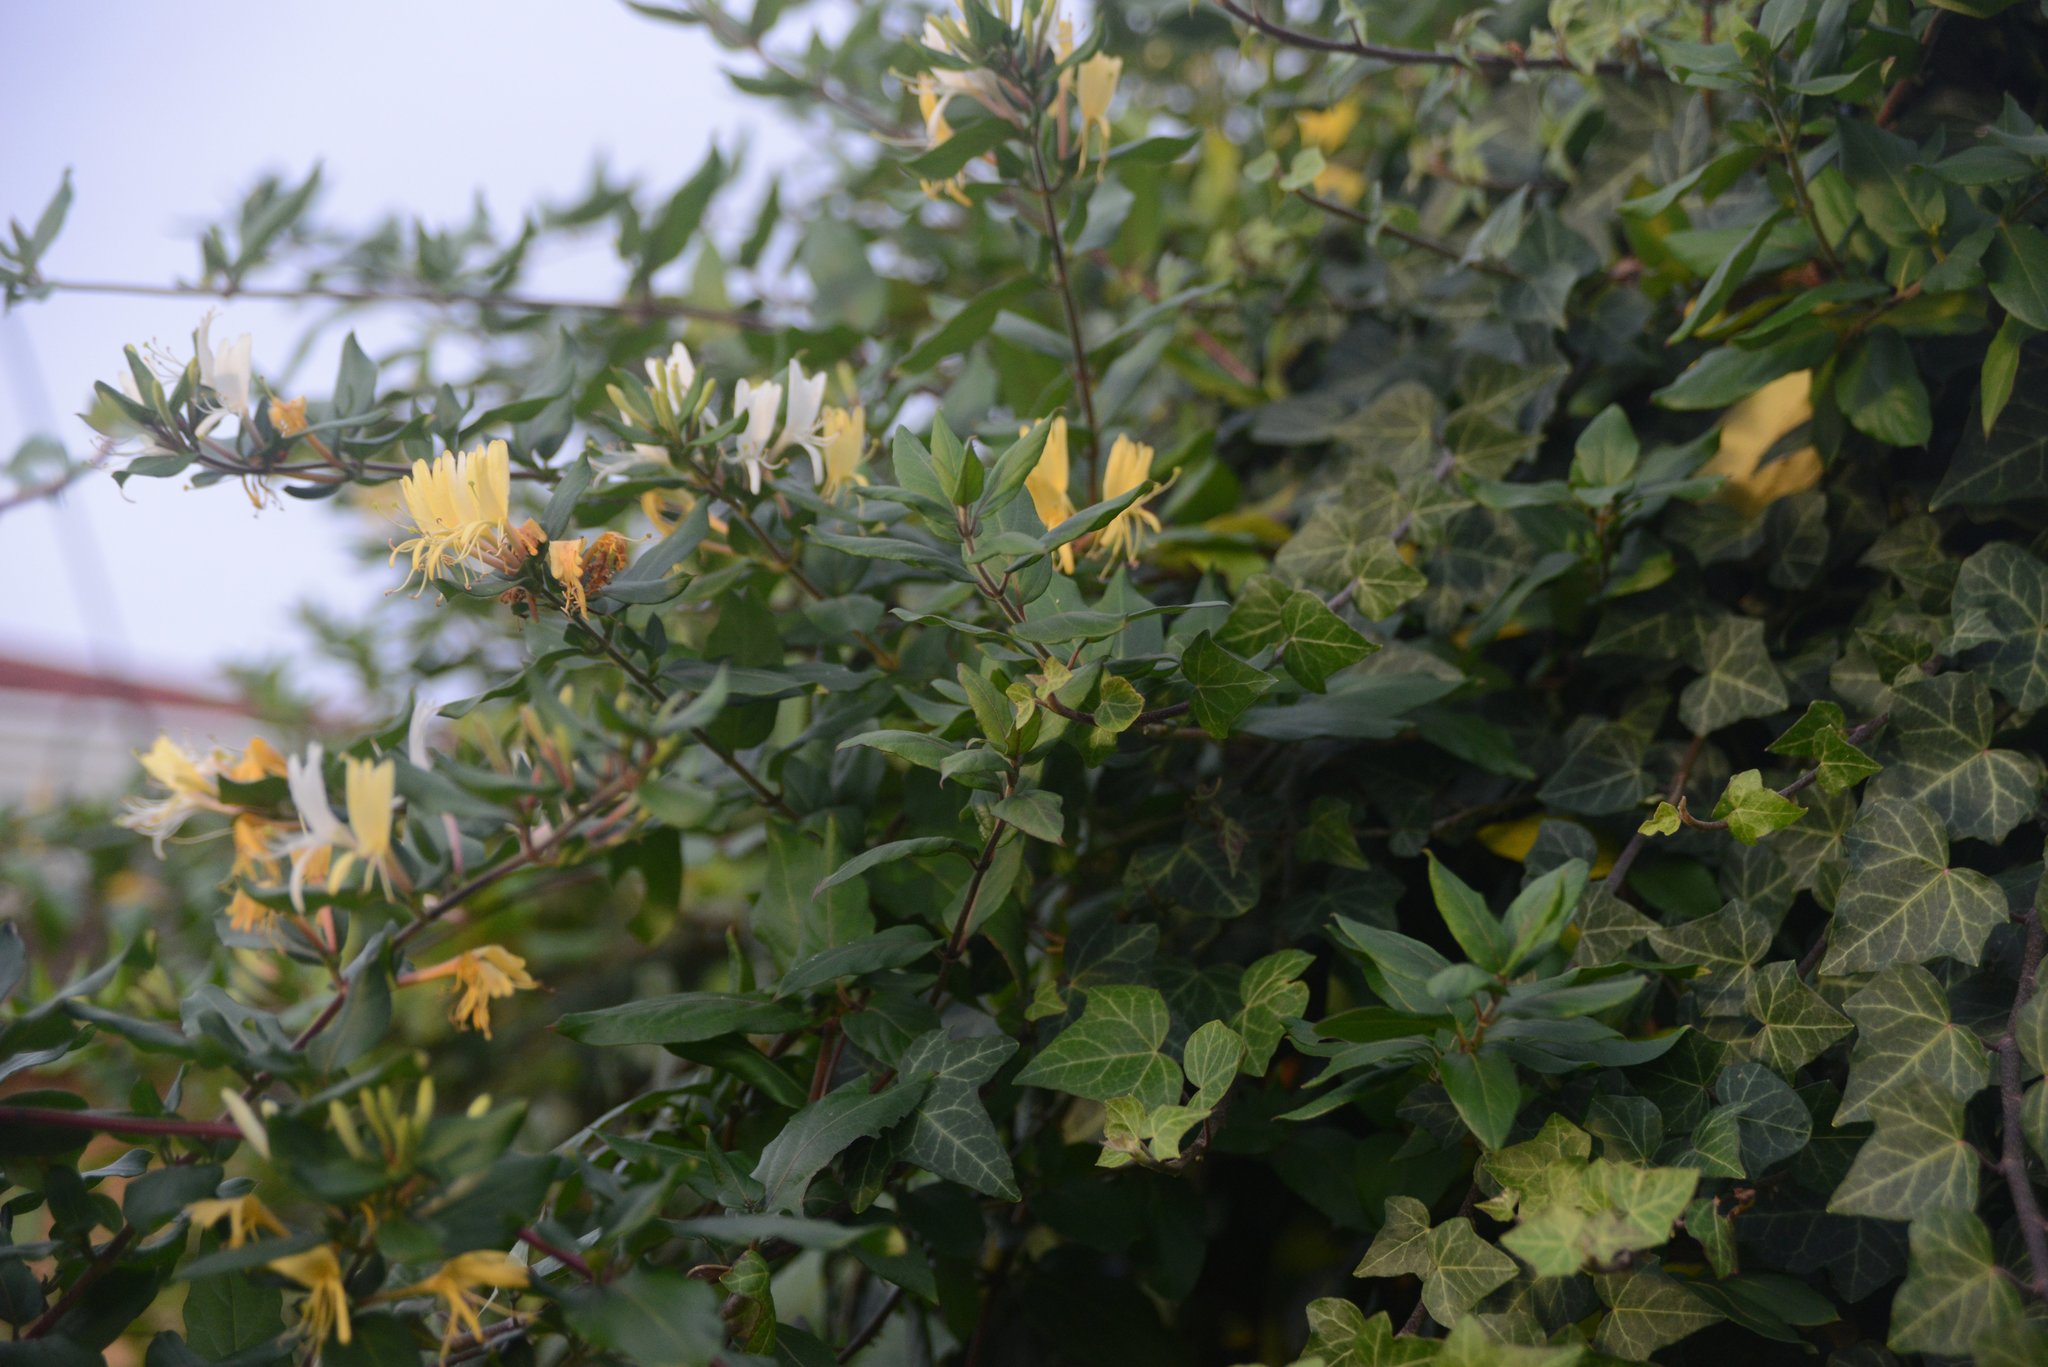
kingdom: Plantae
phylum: Tracheophyta
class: Magnoliopsida
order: Dipsacales
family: Caprifoliaceae
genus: Lonicera
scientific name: Lonicera japonica
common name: Japanese honeysuckle
